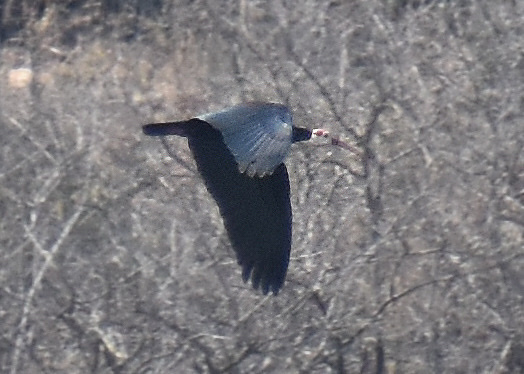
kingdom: Animalia
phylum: Chordata
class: Aves
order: Pelecaniformes
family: Threskiornithidae
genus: Geronticus
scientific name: Geronticus calvus
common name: Southern bald ibis
